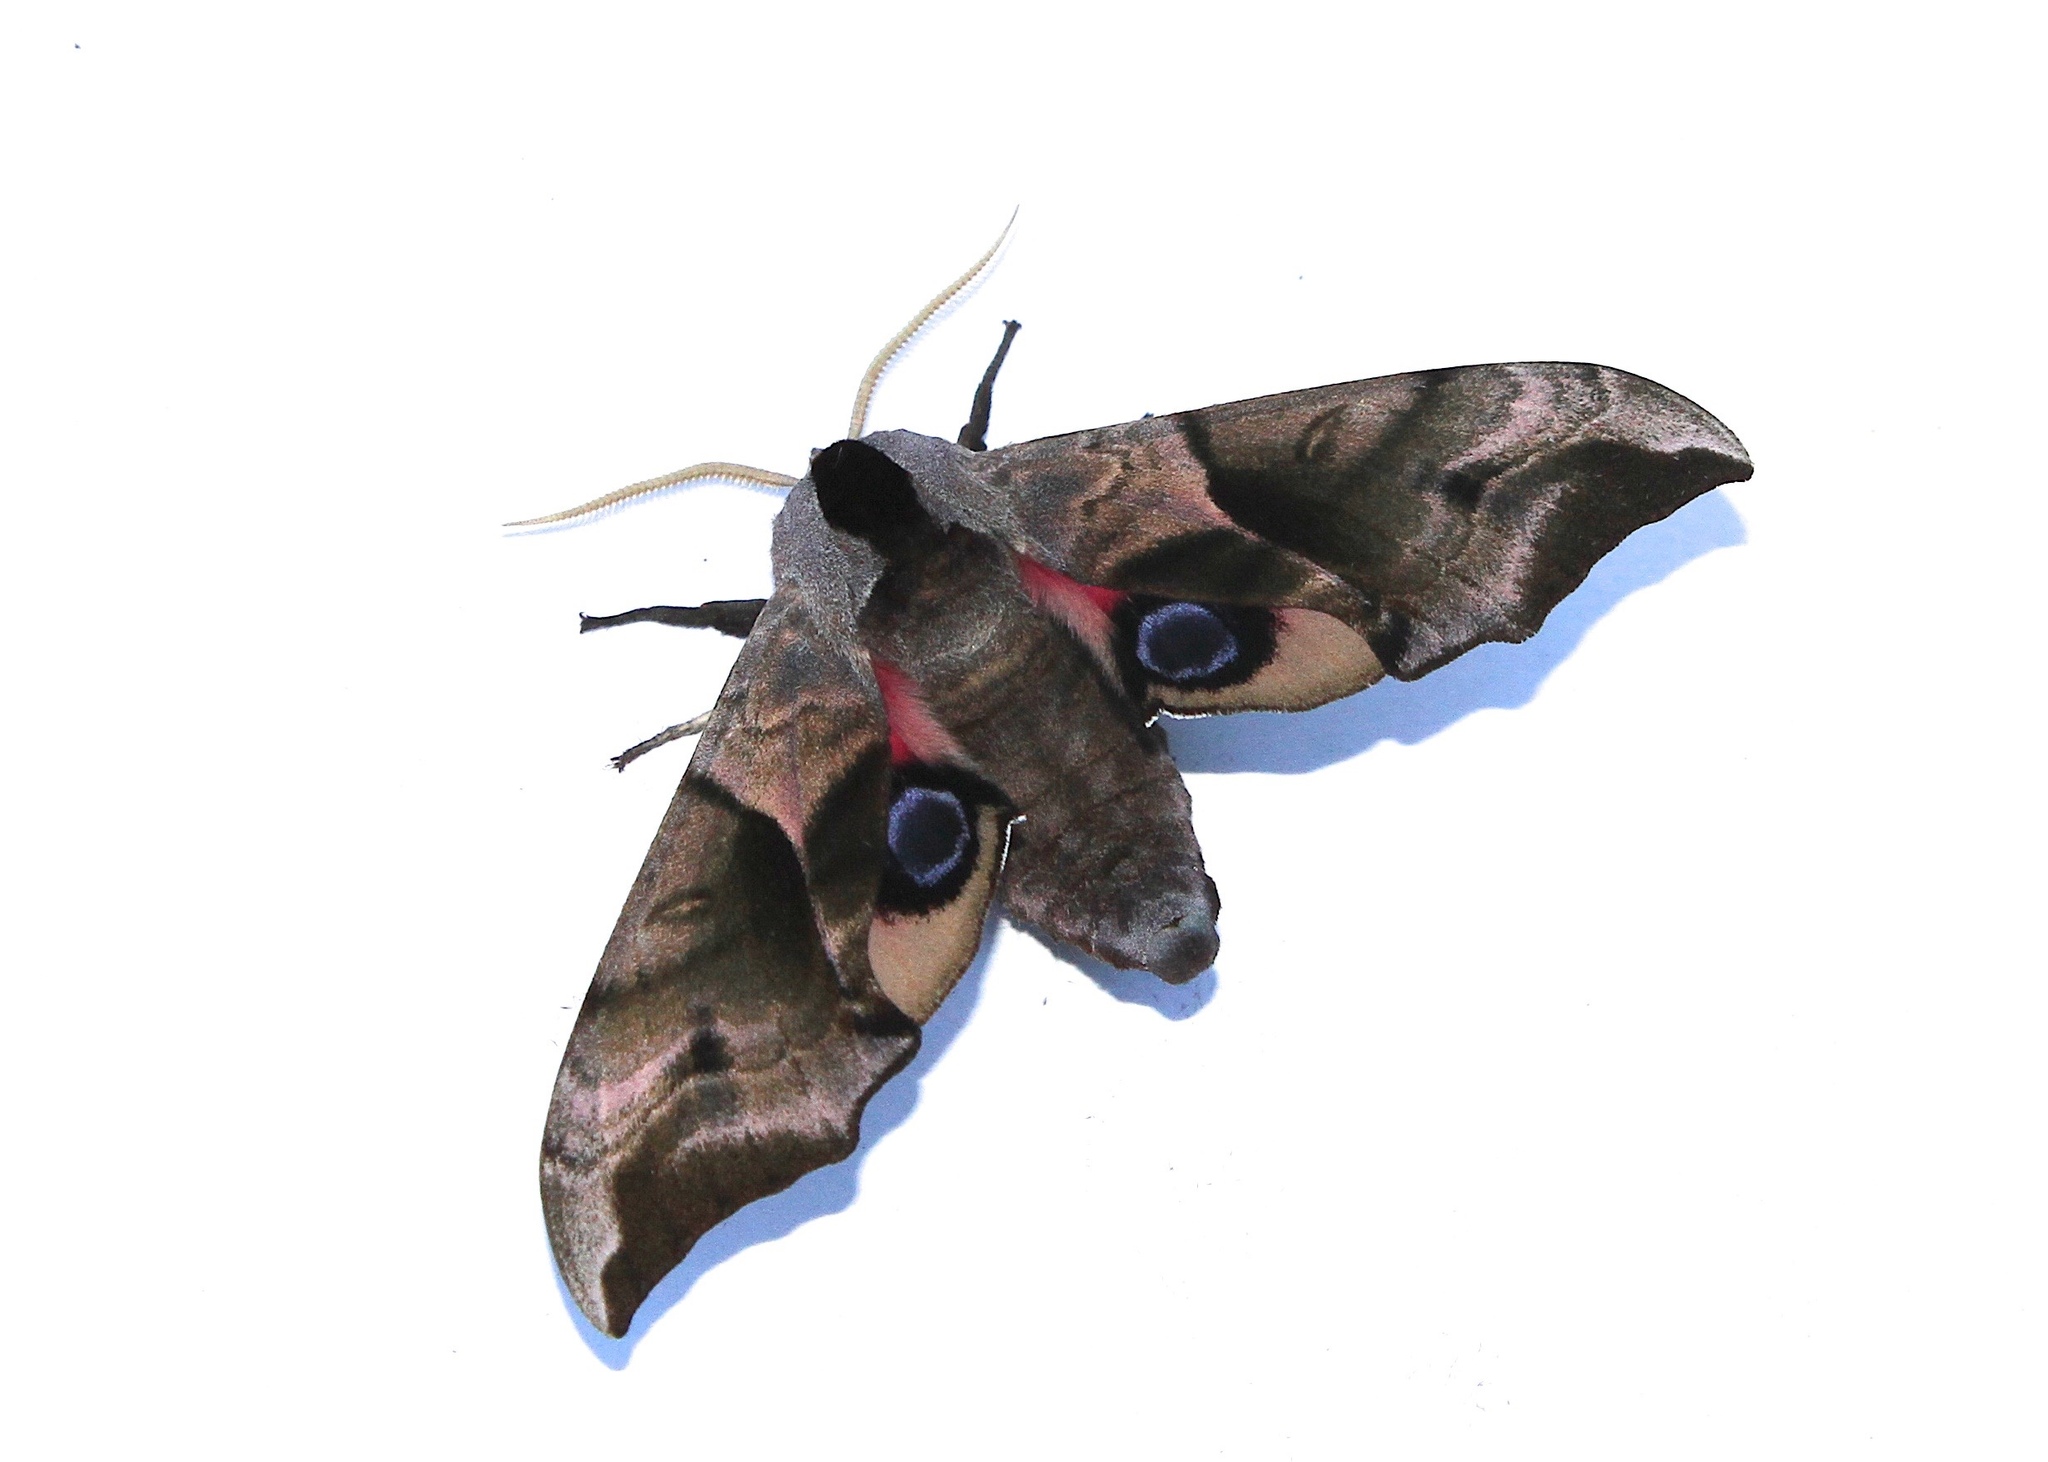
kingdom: Animalia
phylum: Arthropoda
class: Insecta
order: Lepidoptera
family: Sphingidae
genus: Smerinthus
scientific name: Smerinthus ocellata
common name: Eyed hawk-moth
